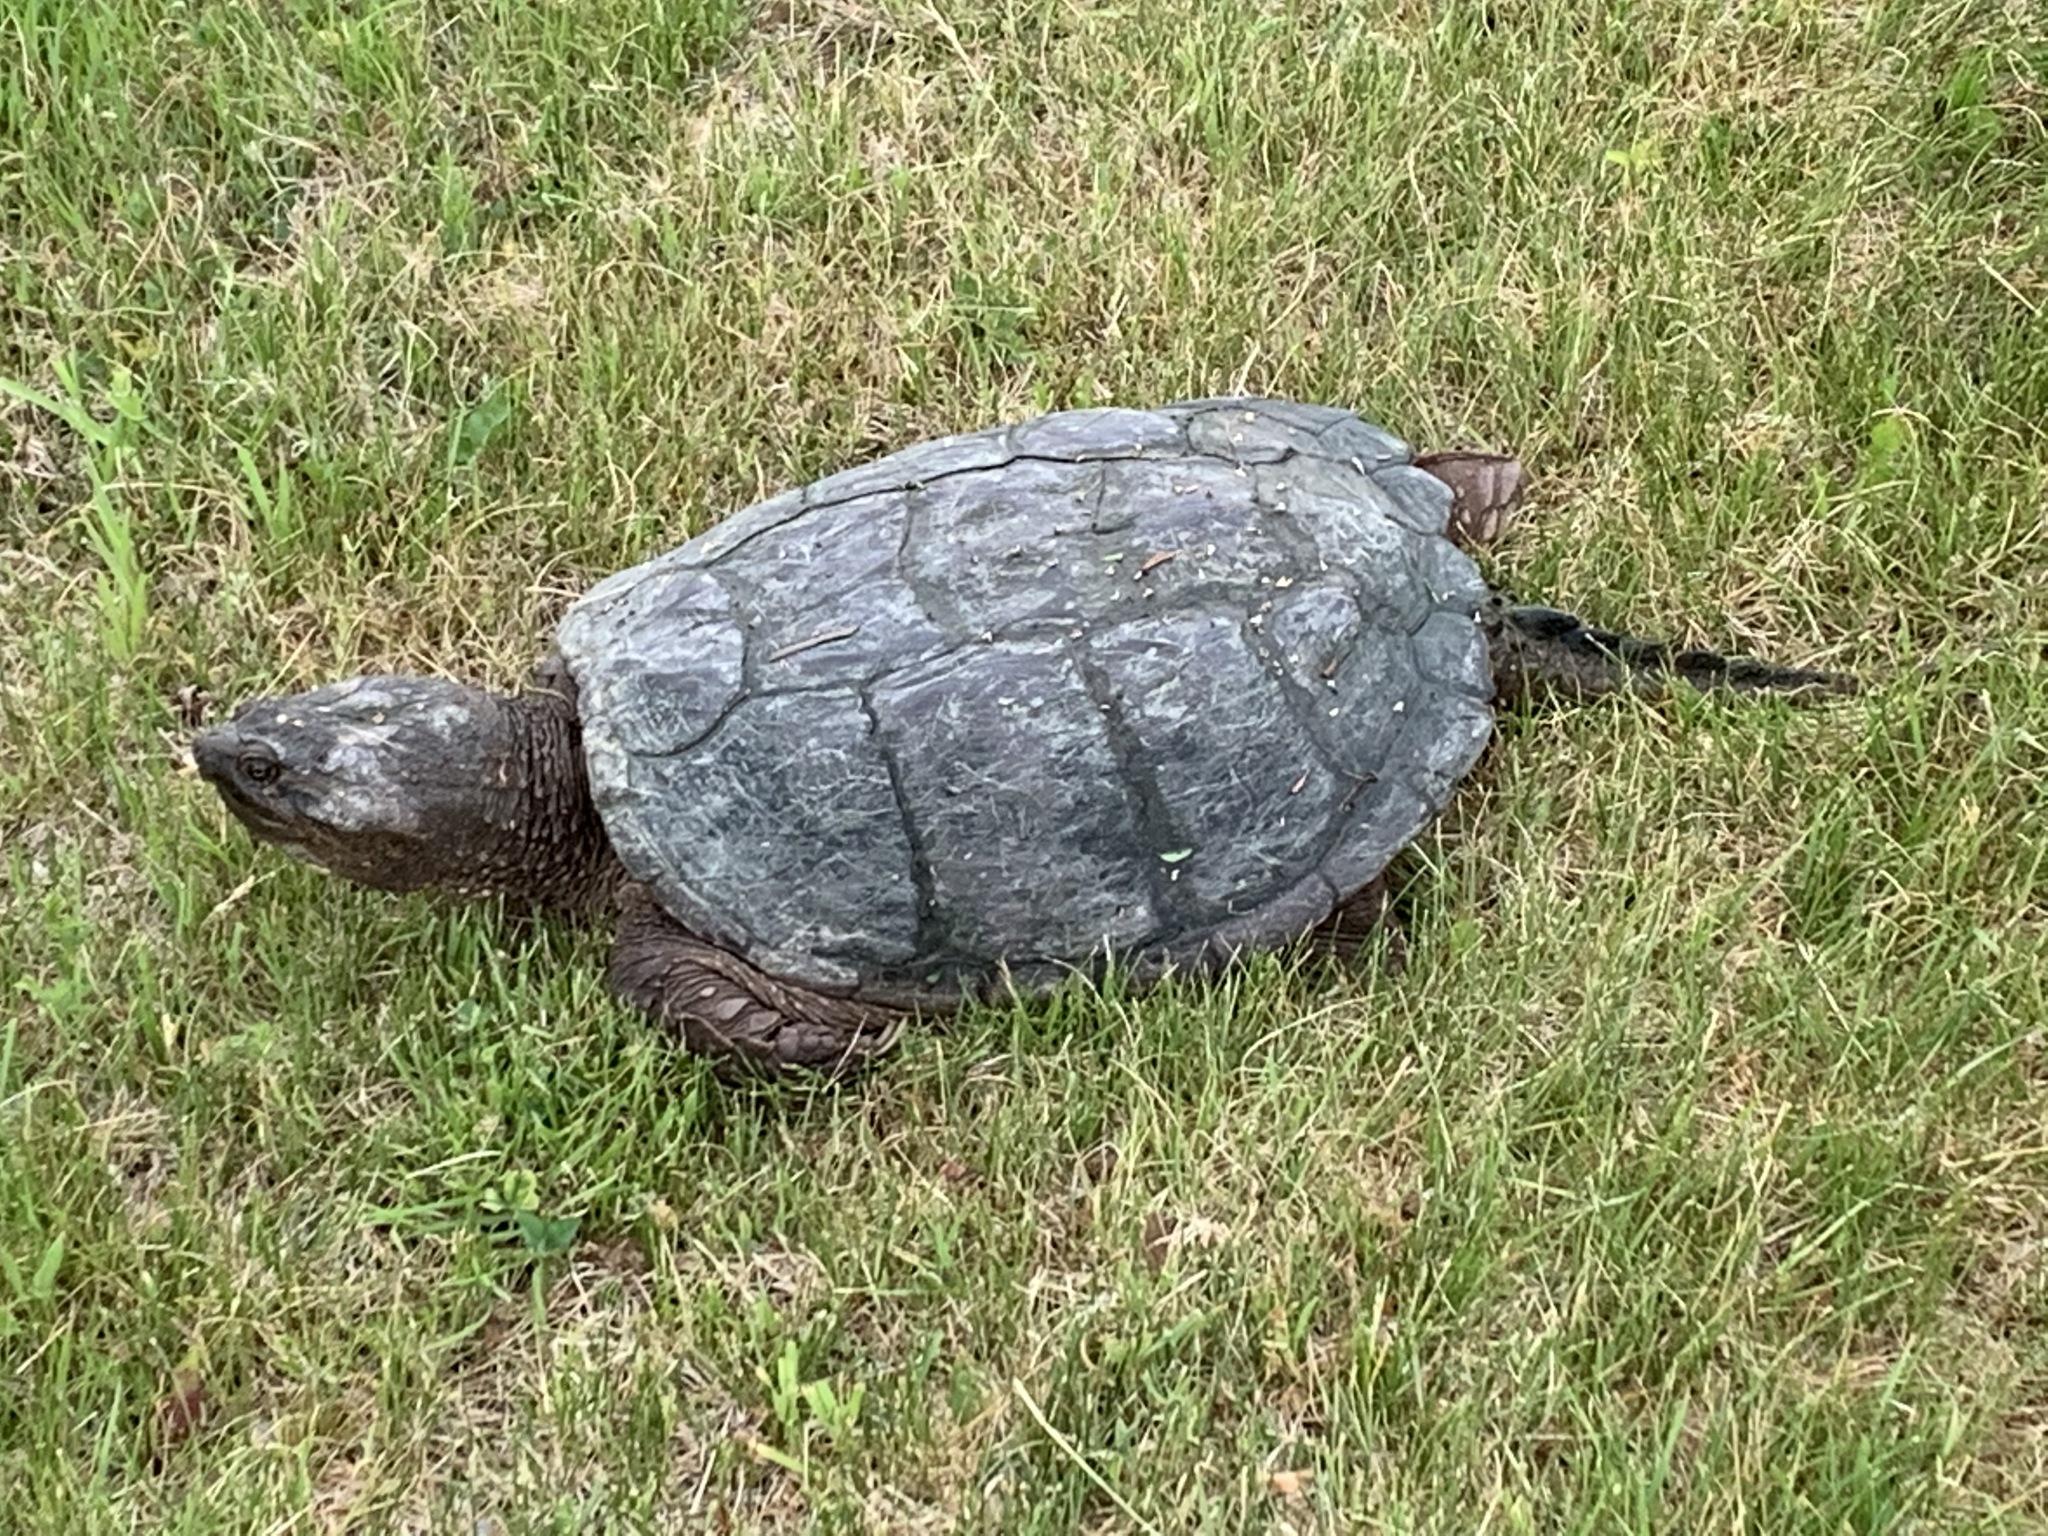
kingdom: Animalia
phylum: Chordata
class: Testudines
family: Chelydridae
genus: Chelydra
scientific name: Chelydra serpentina
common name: Common snapping turtle
